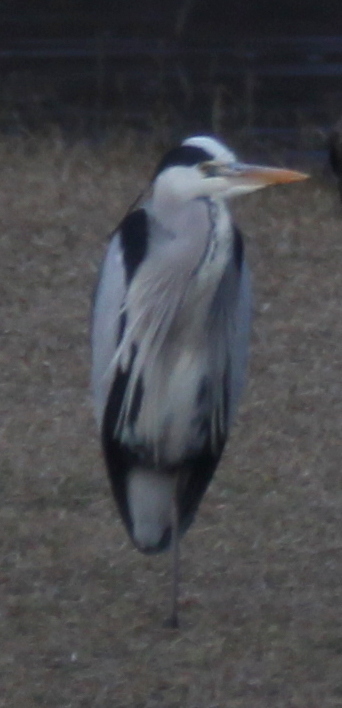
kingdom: Animalia
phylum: Chordata
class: Aves
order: Pelecaniformes
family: Ardeidae
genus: Ardea
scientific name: Ardea cinerea
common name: Grey heron
